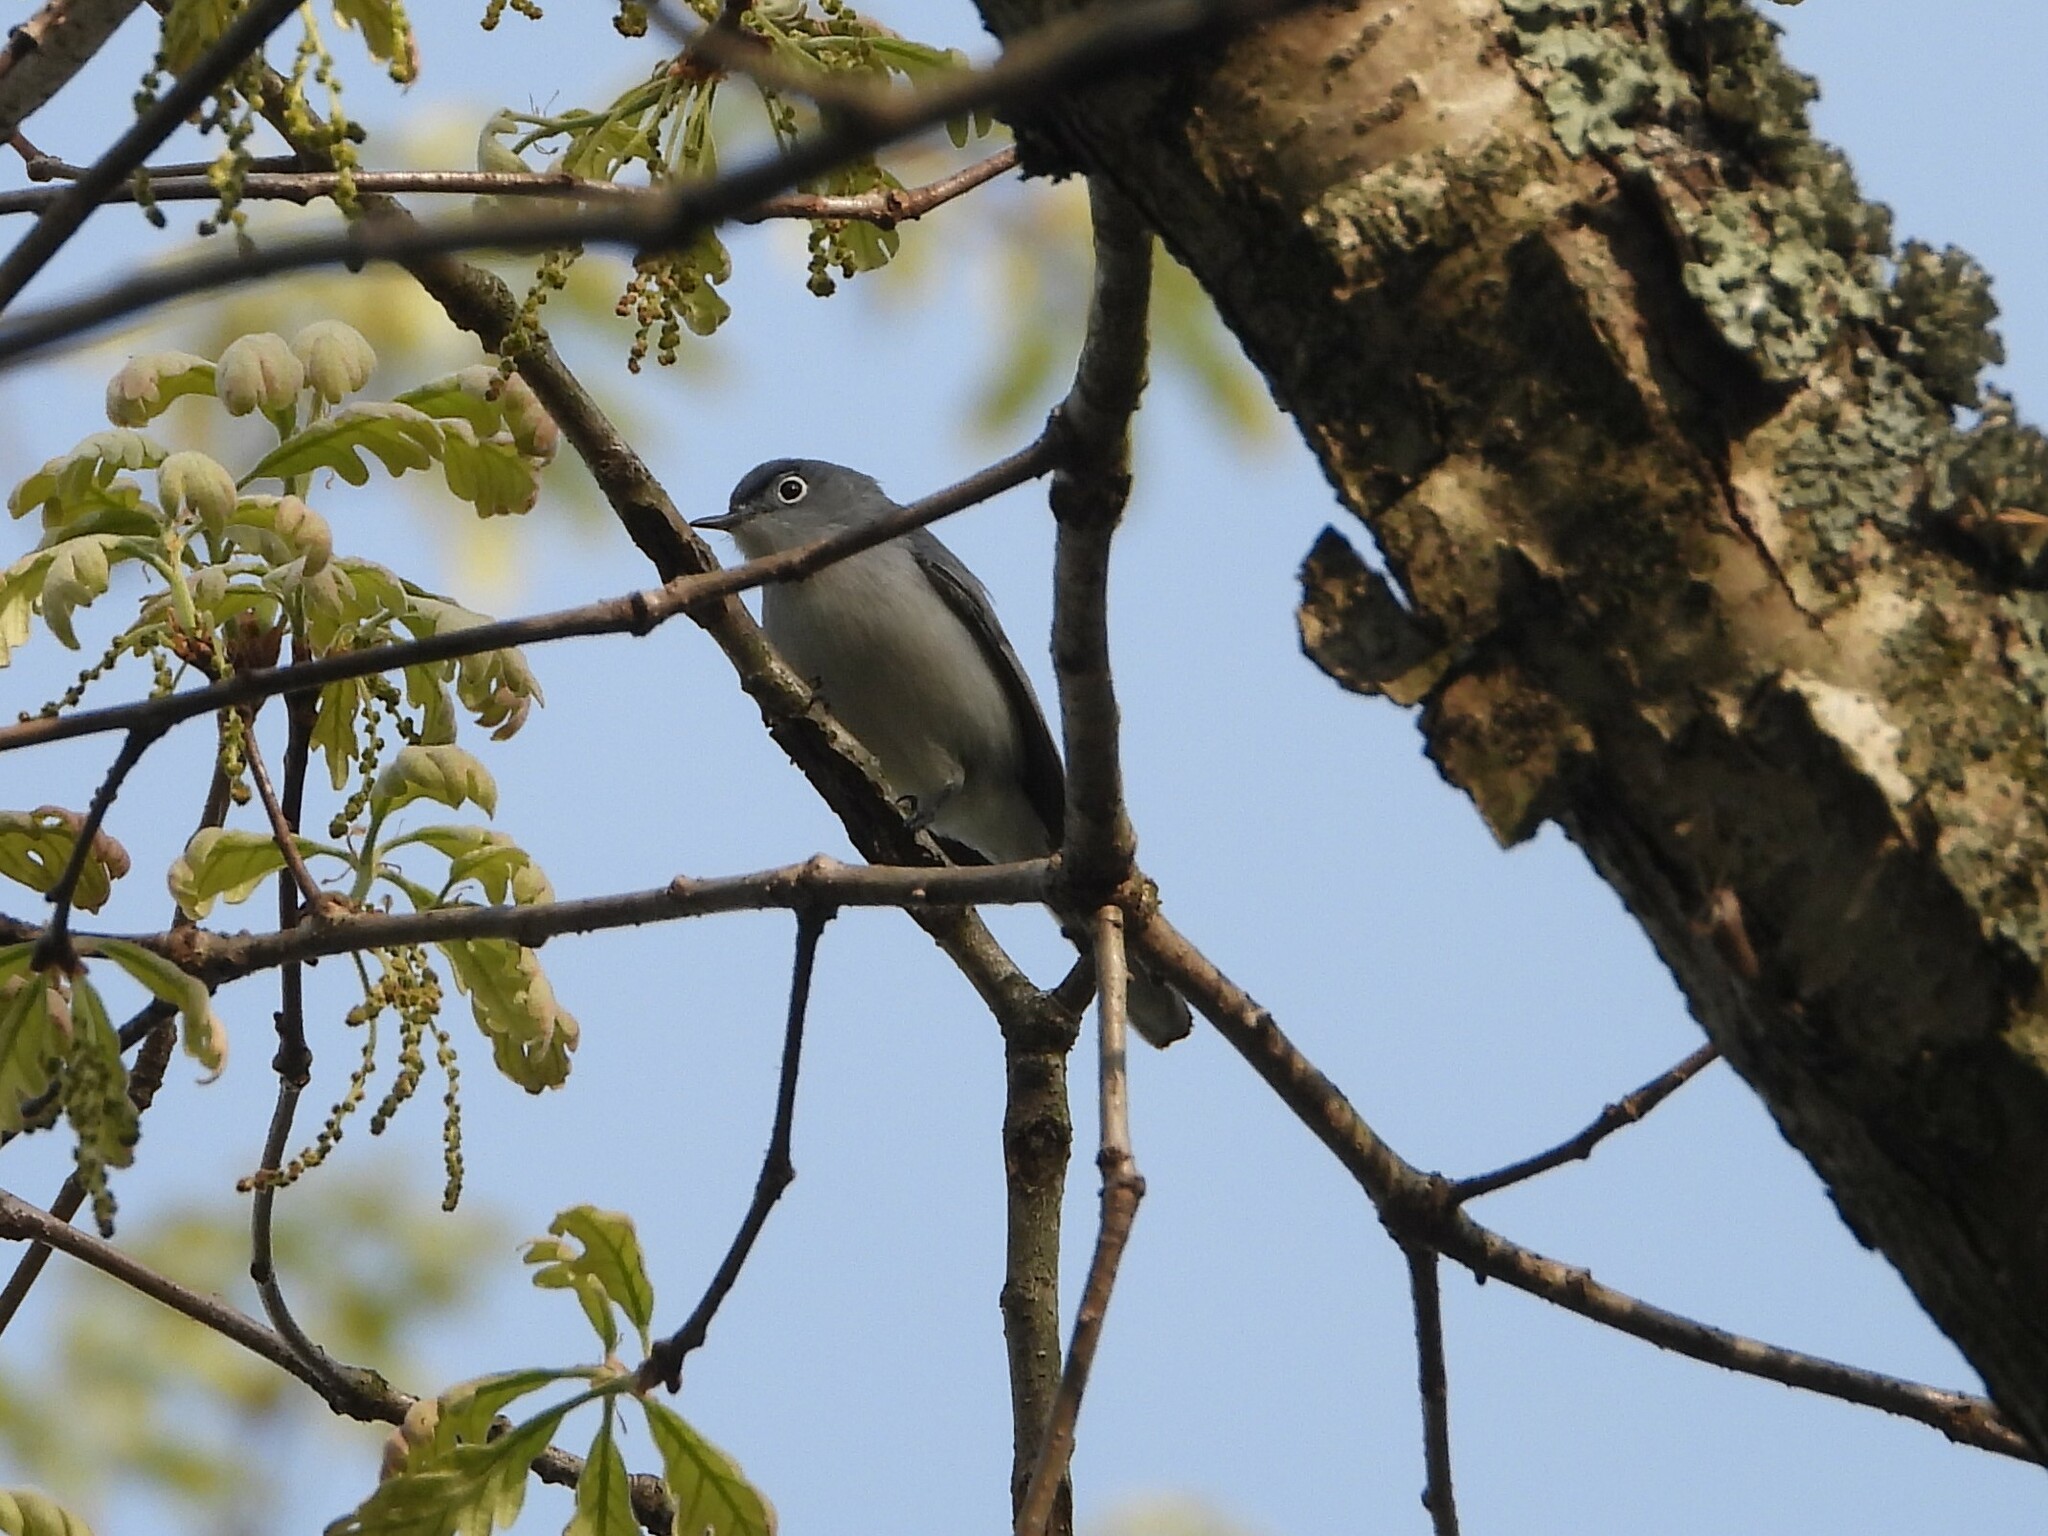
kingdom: Animalia
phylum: Chordata
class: Aves
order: Passeriformes
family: Polioptilidae
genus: Polioptila
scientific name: Polioptila caerulea
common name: Blue-gray gnatcatcher
